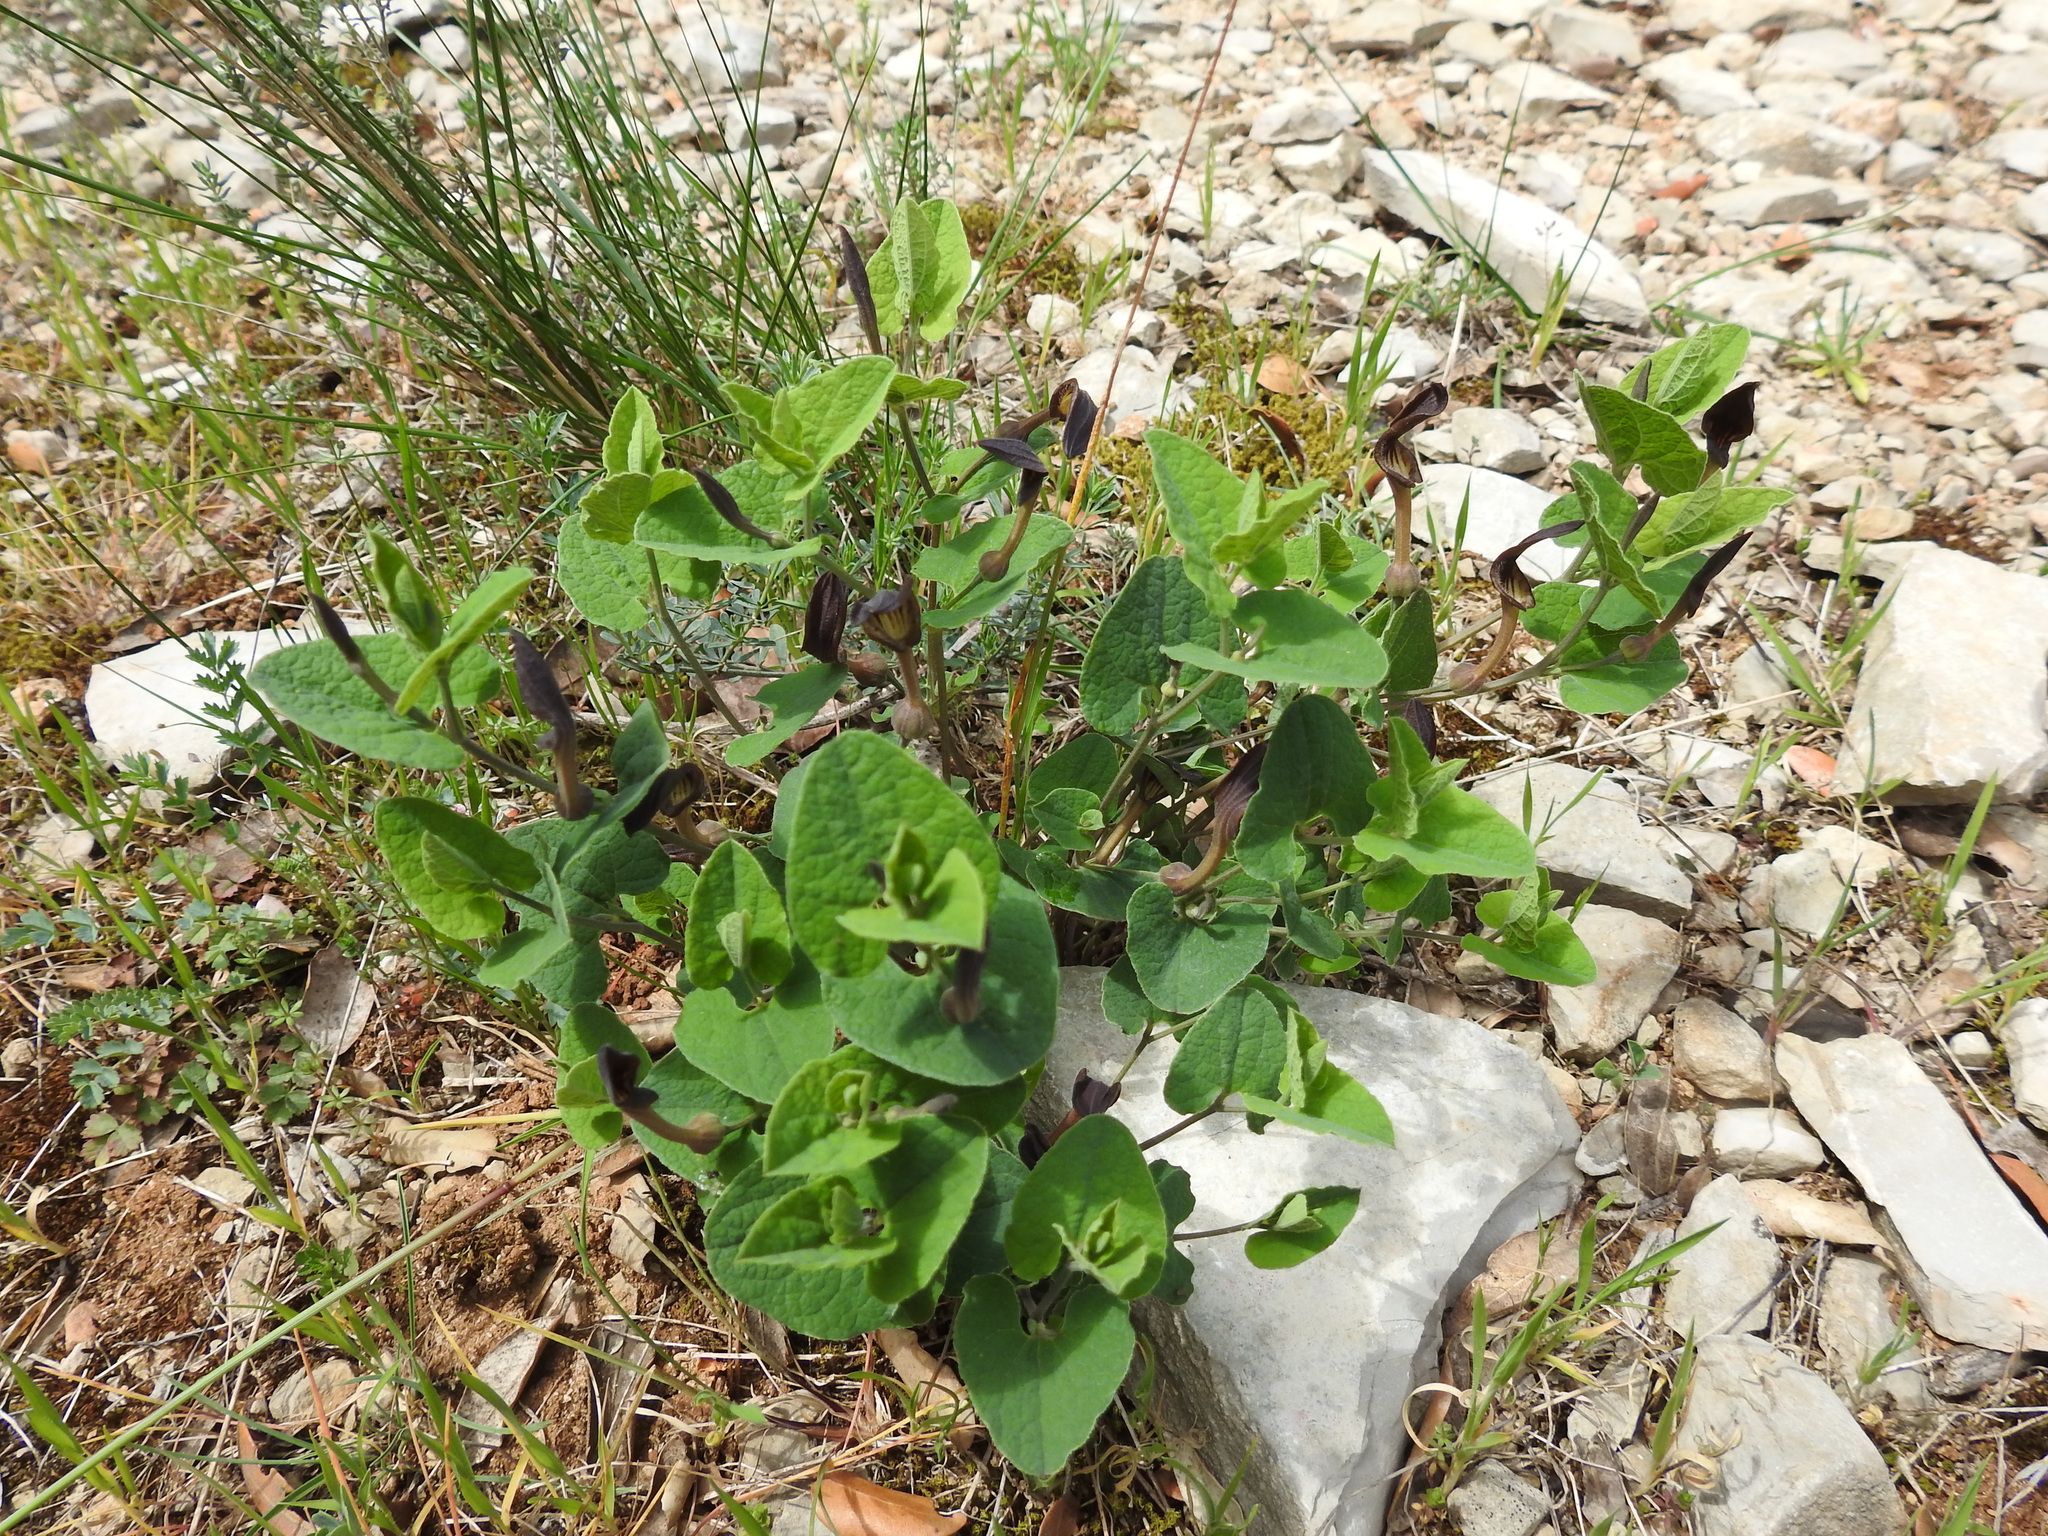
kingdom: Plantae
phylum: Tracheophyta
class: Magnoliopsida
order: Piperales
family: Aristolochiaceae
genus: Aristolochia
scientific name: Aristolochia pistolochia
